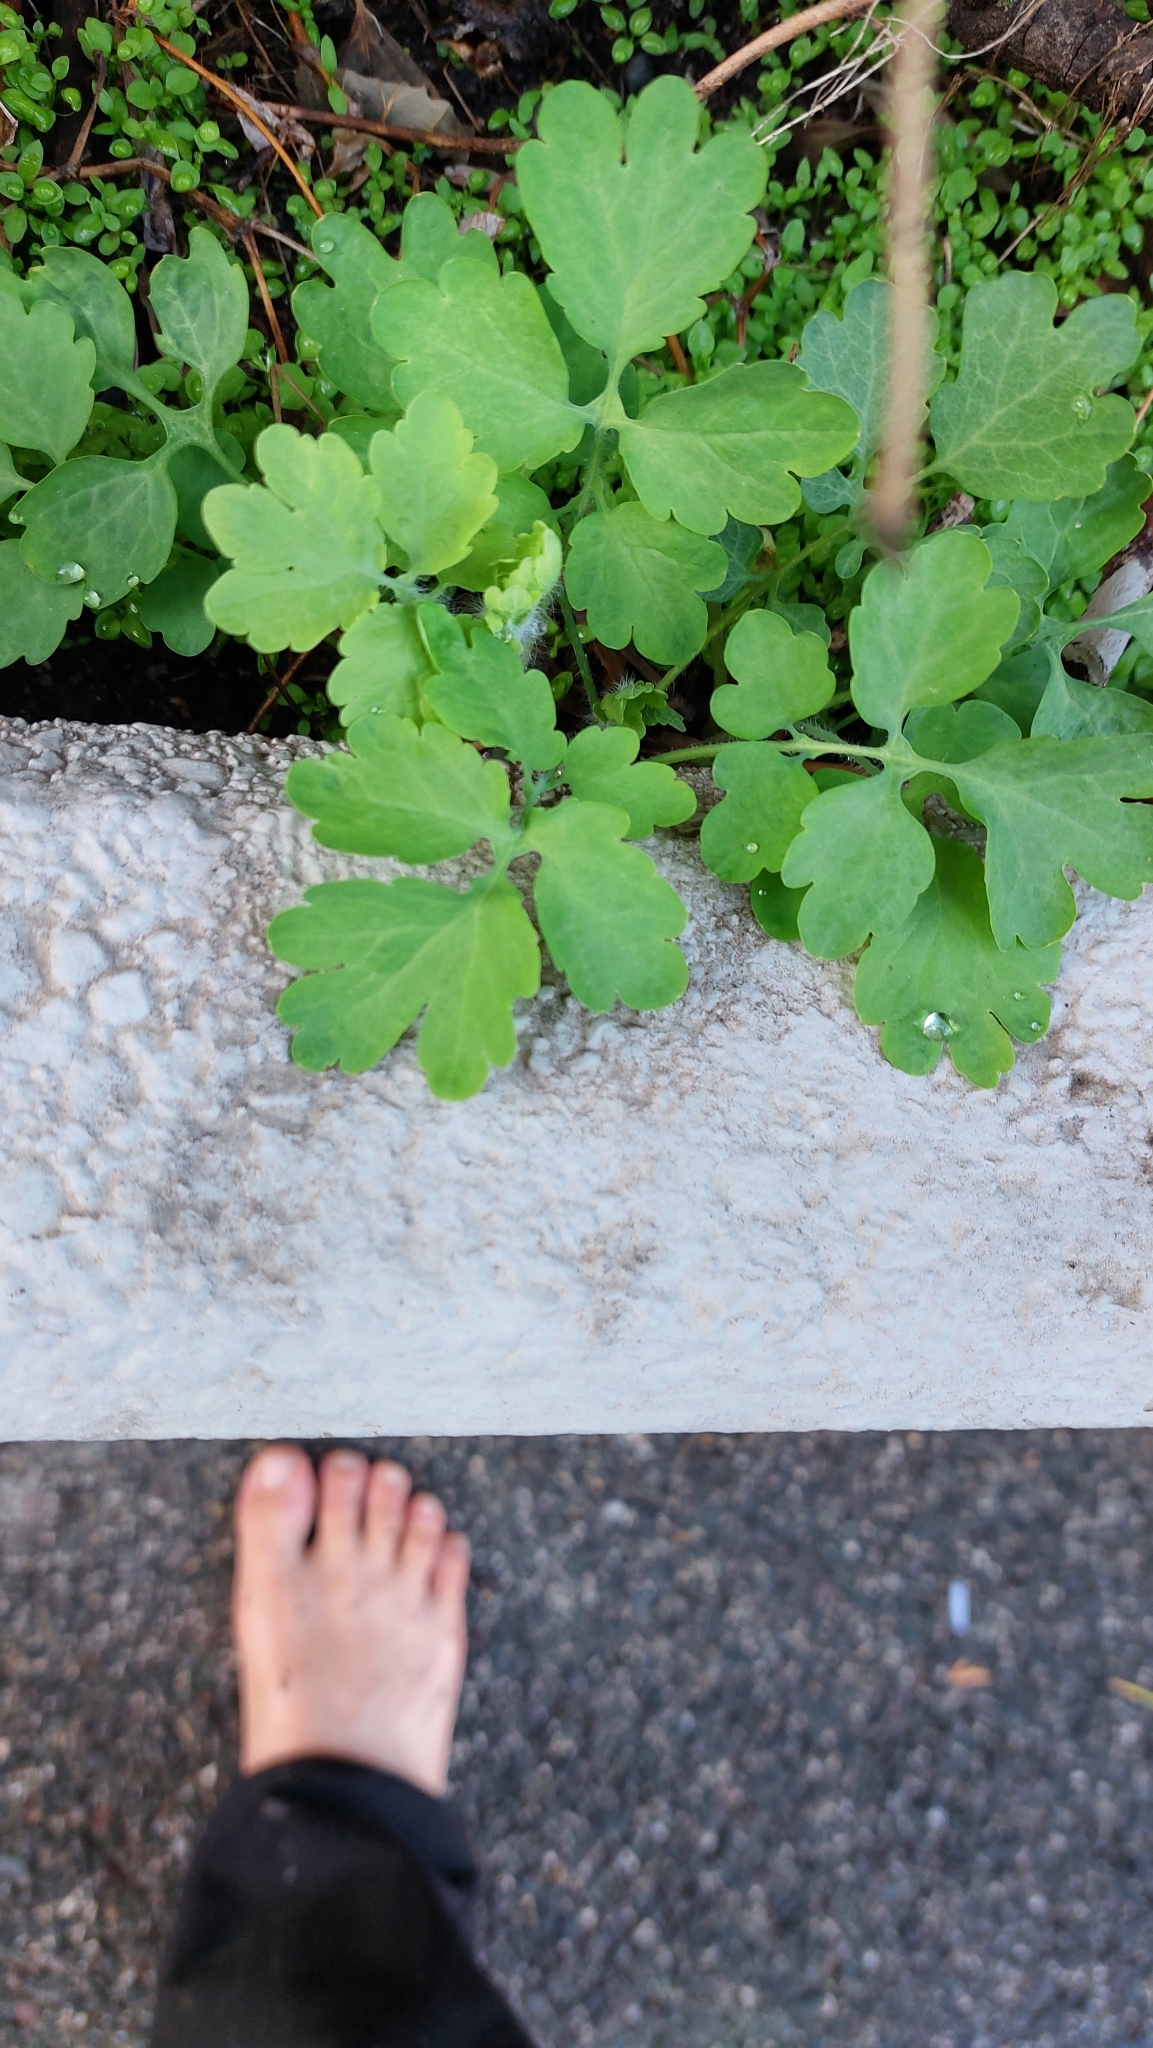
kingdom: Plantae
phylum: Tracheophyta
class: Magnoliopsida
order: Ranunculales
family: Papaveraceae
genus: Chelidonium
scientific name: Chelidonium majus
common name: Greater celandine
